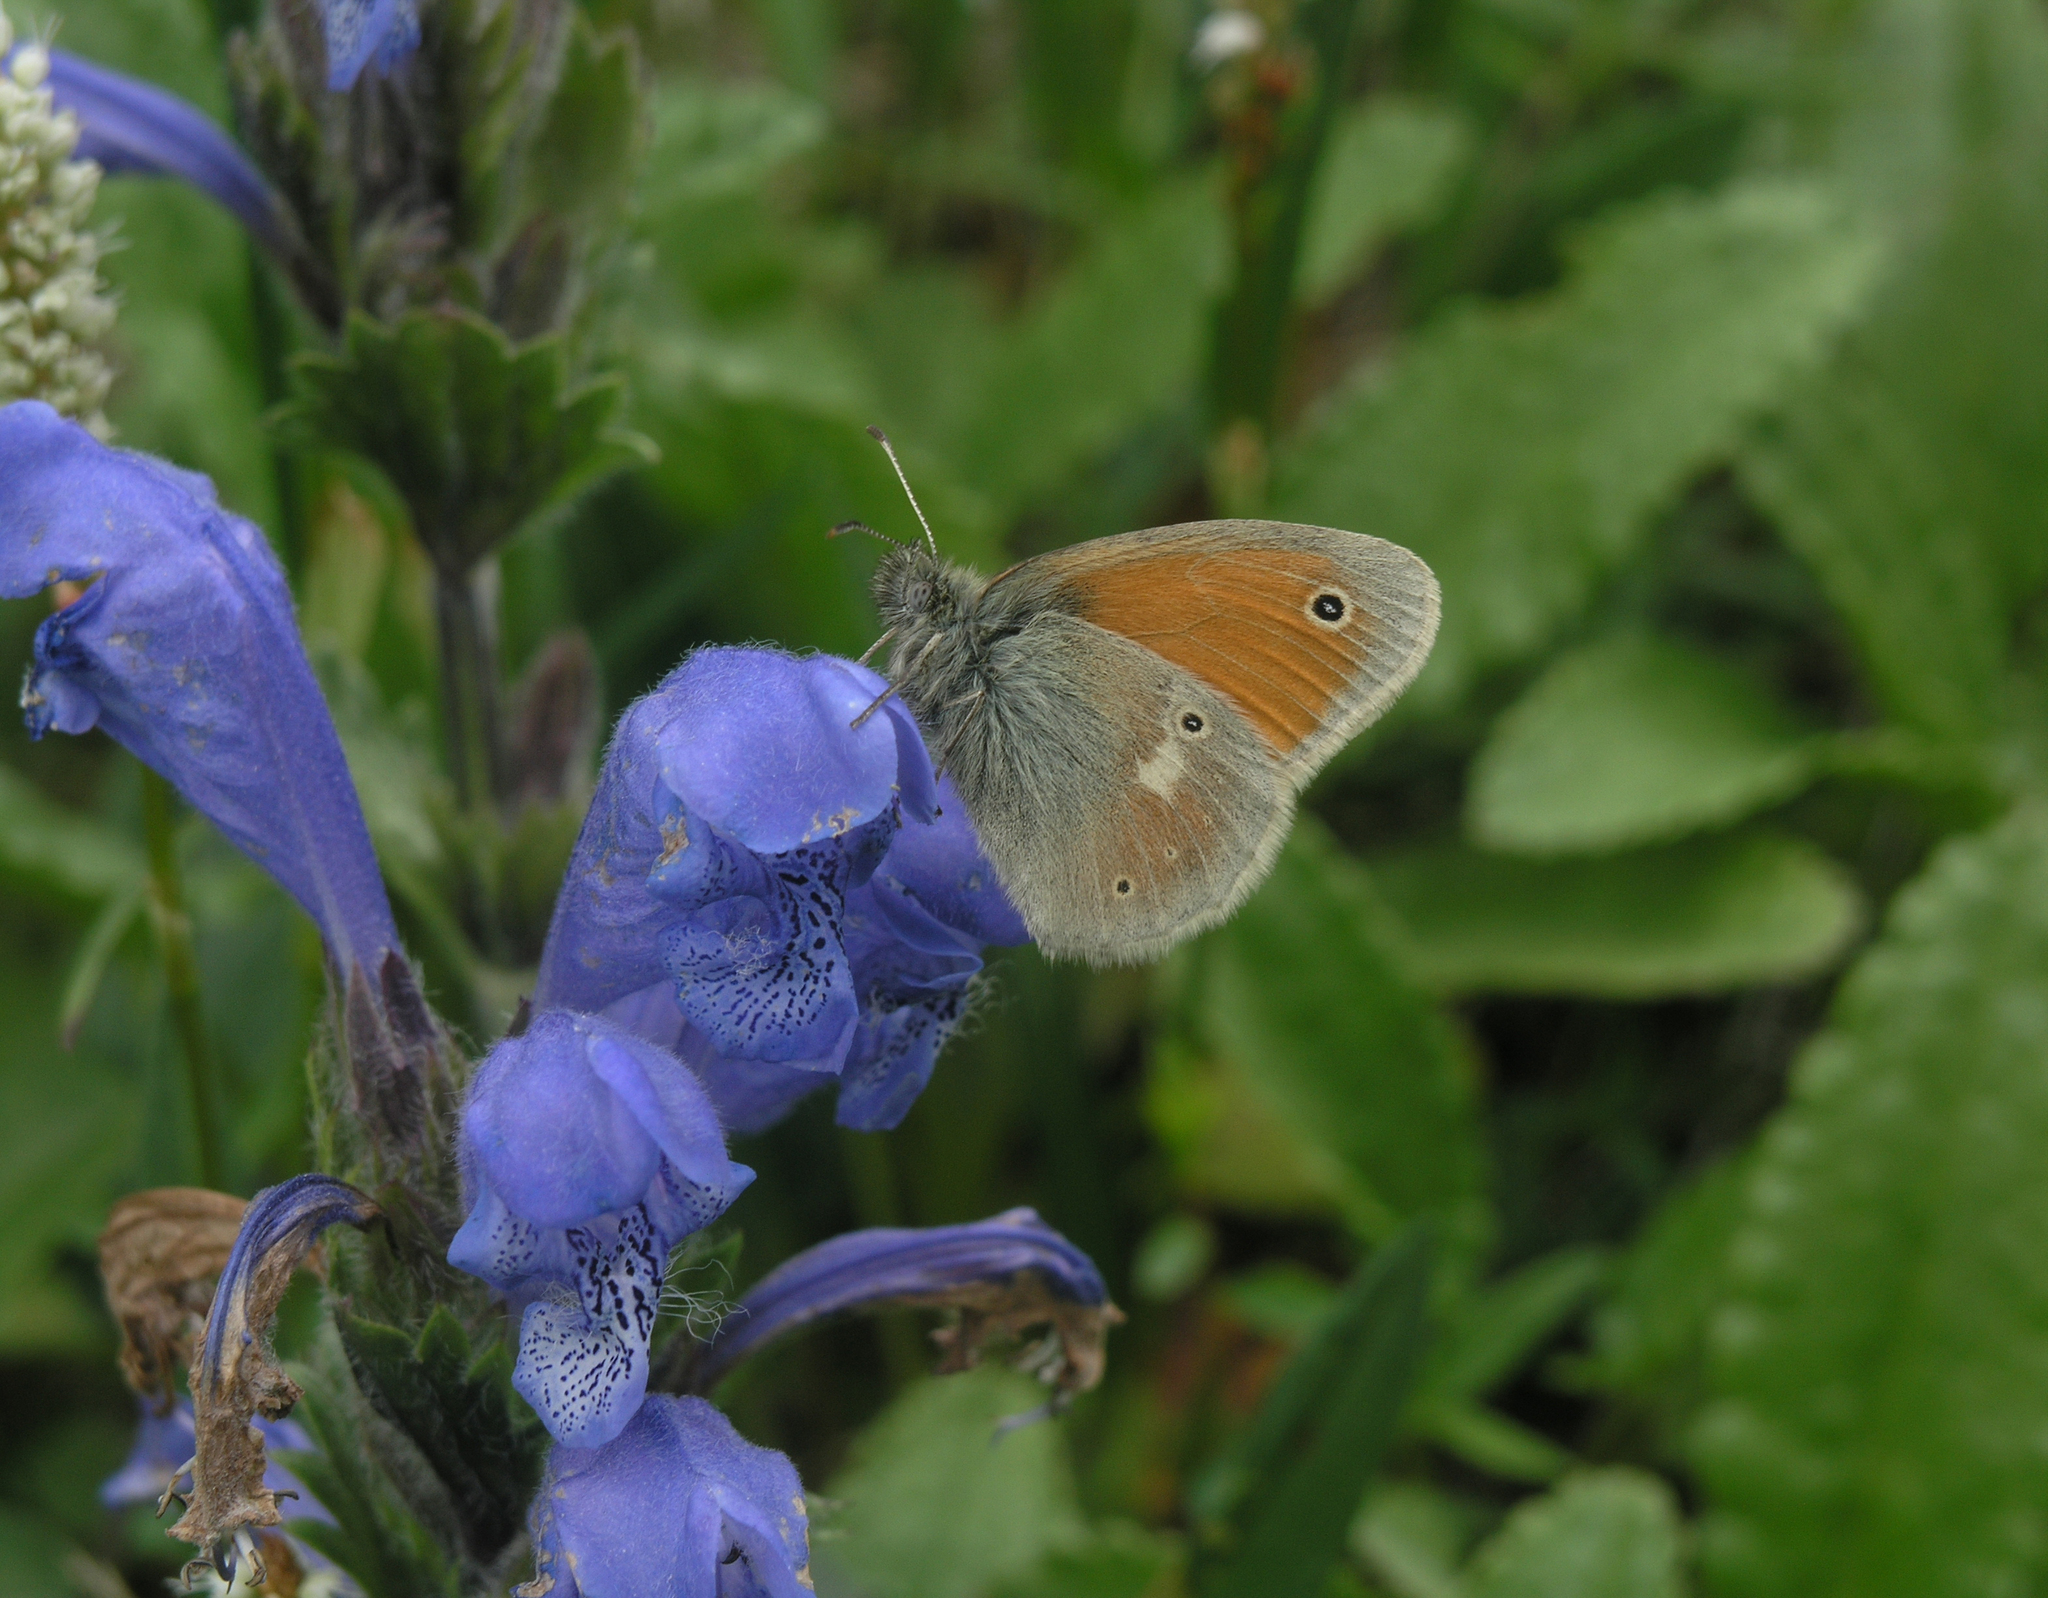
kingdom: Plantae
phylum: Tracheophyta
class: Magnoliopsida
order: Lamiales
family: Lamiaceae
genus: Dracocephalum
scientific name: Dracocephalum grandiflorum
